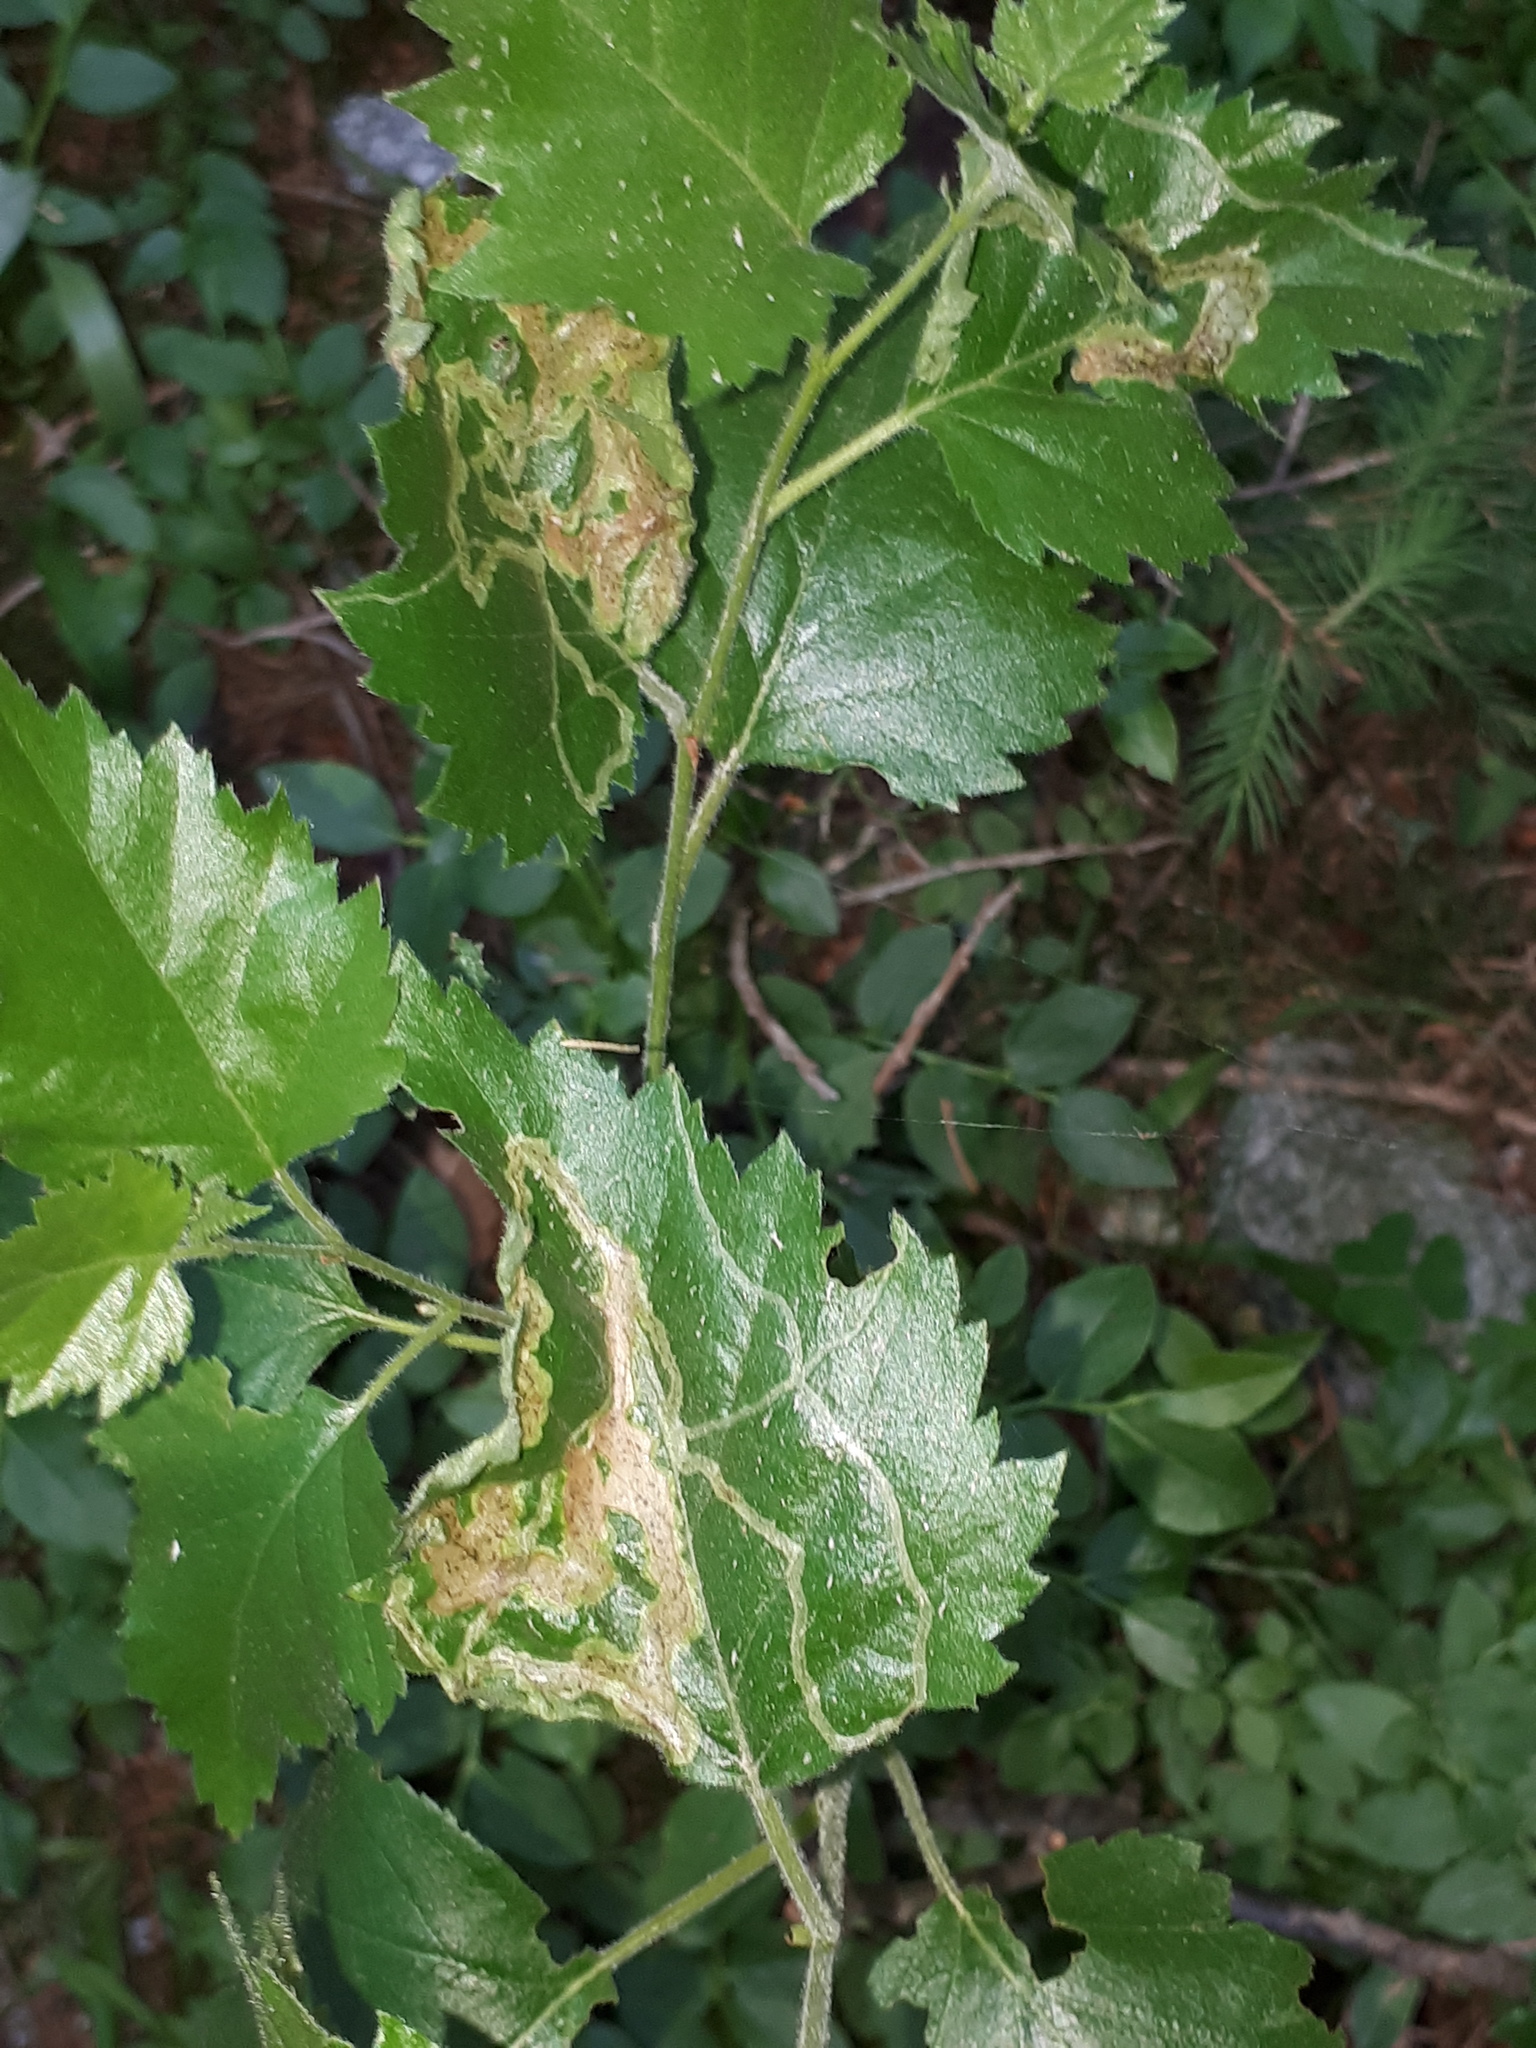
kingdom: Animalia
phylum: Arthropoda
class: Insecta
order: Diptera
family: Agromyzidae
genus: Agromyza
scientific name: Agromyza alnibetulae
